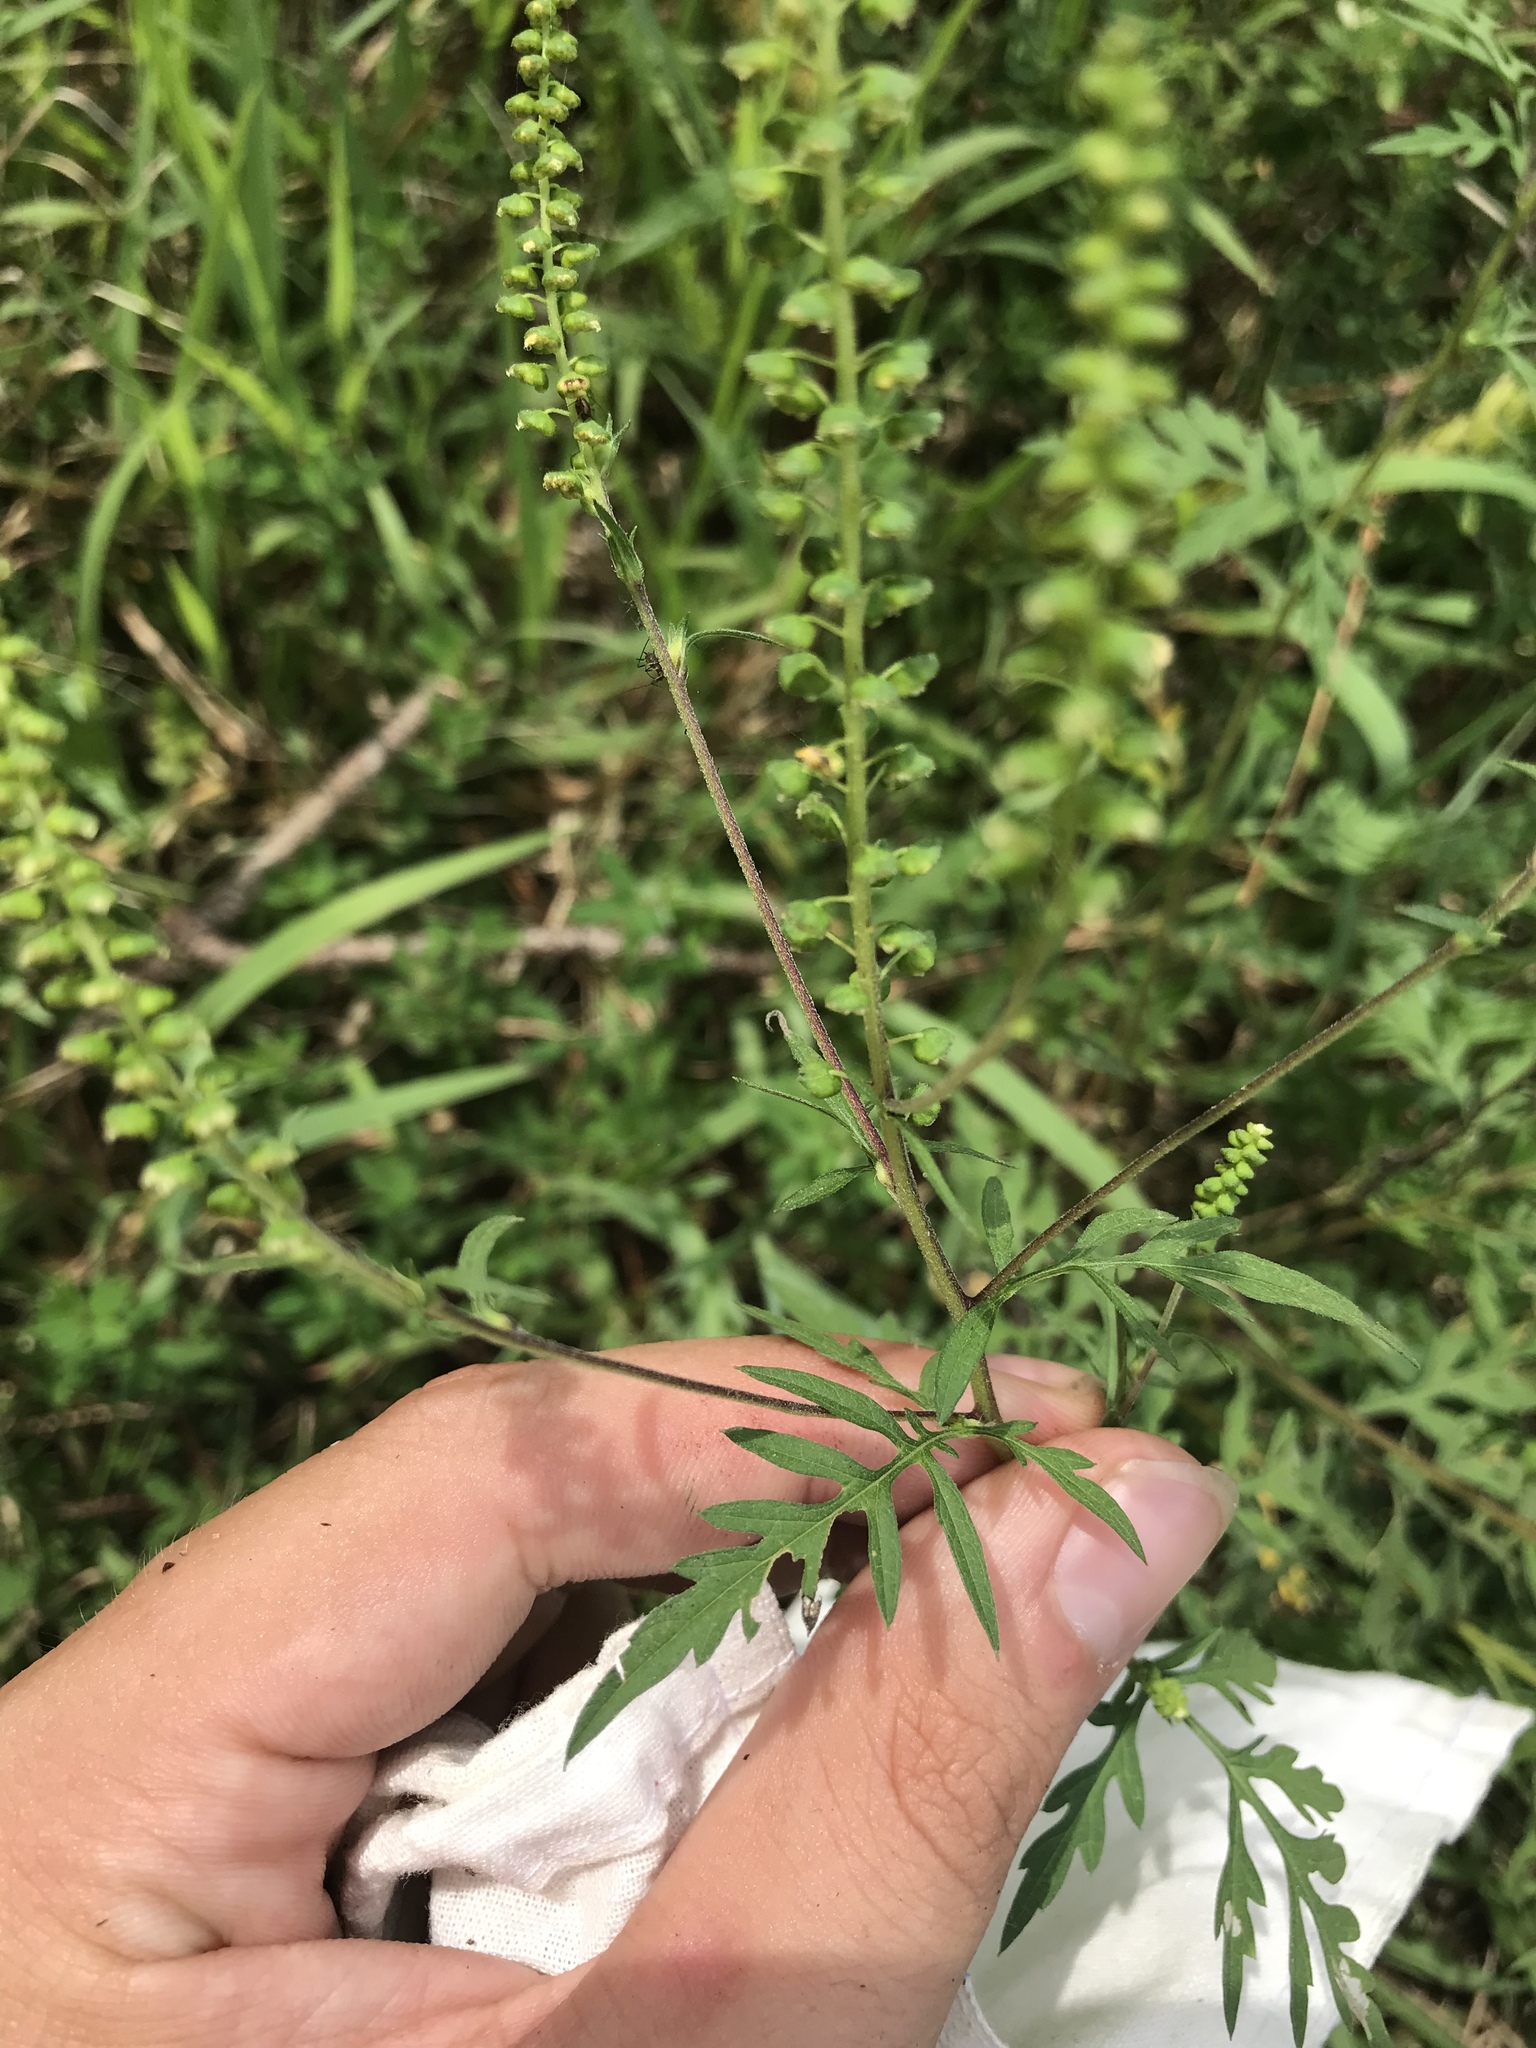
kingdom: Plantae
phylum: Tracheophyta
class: Magnoliopsida
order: Asterales
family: Asteraceae
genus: Ambrosia
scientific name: Ambrosia artemisiifolia
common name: Annual ragweed
